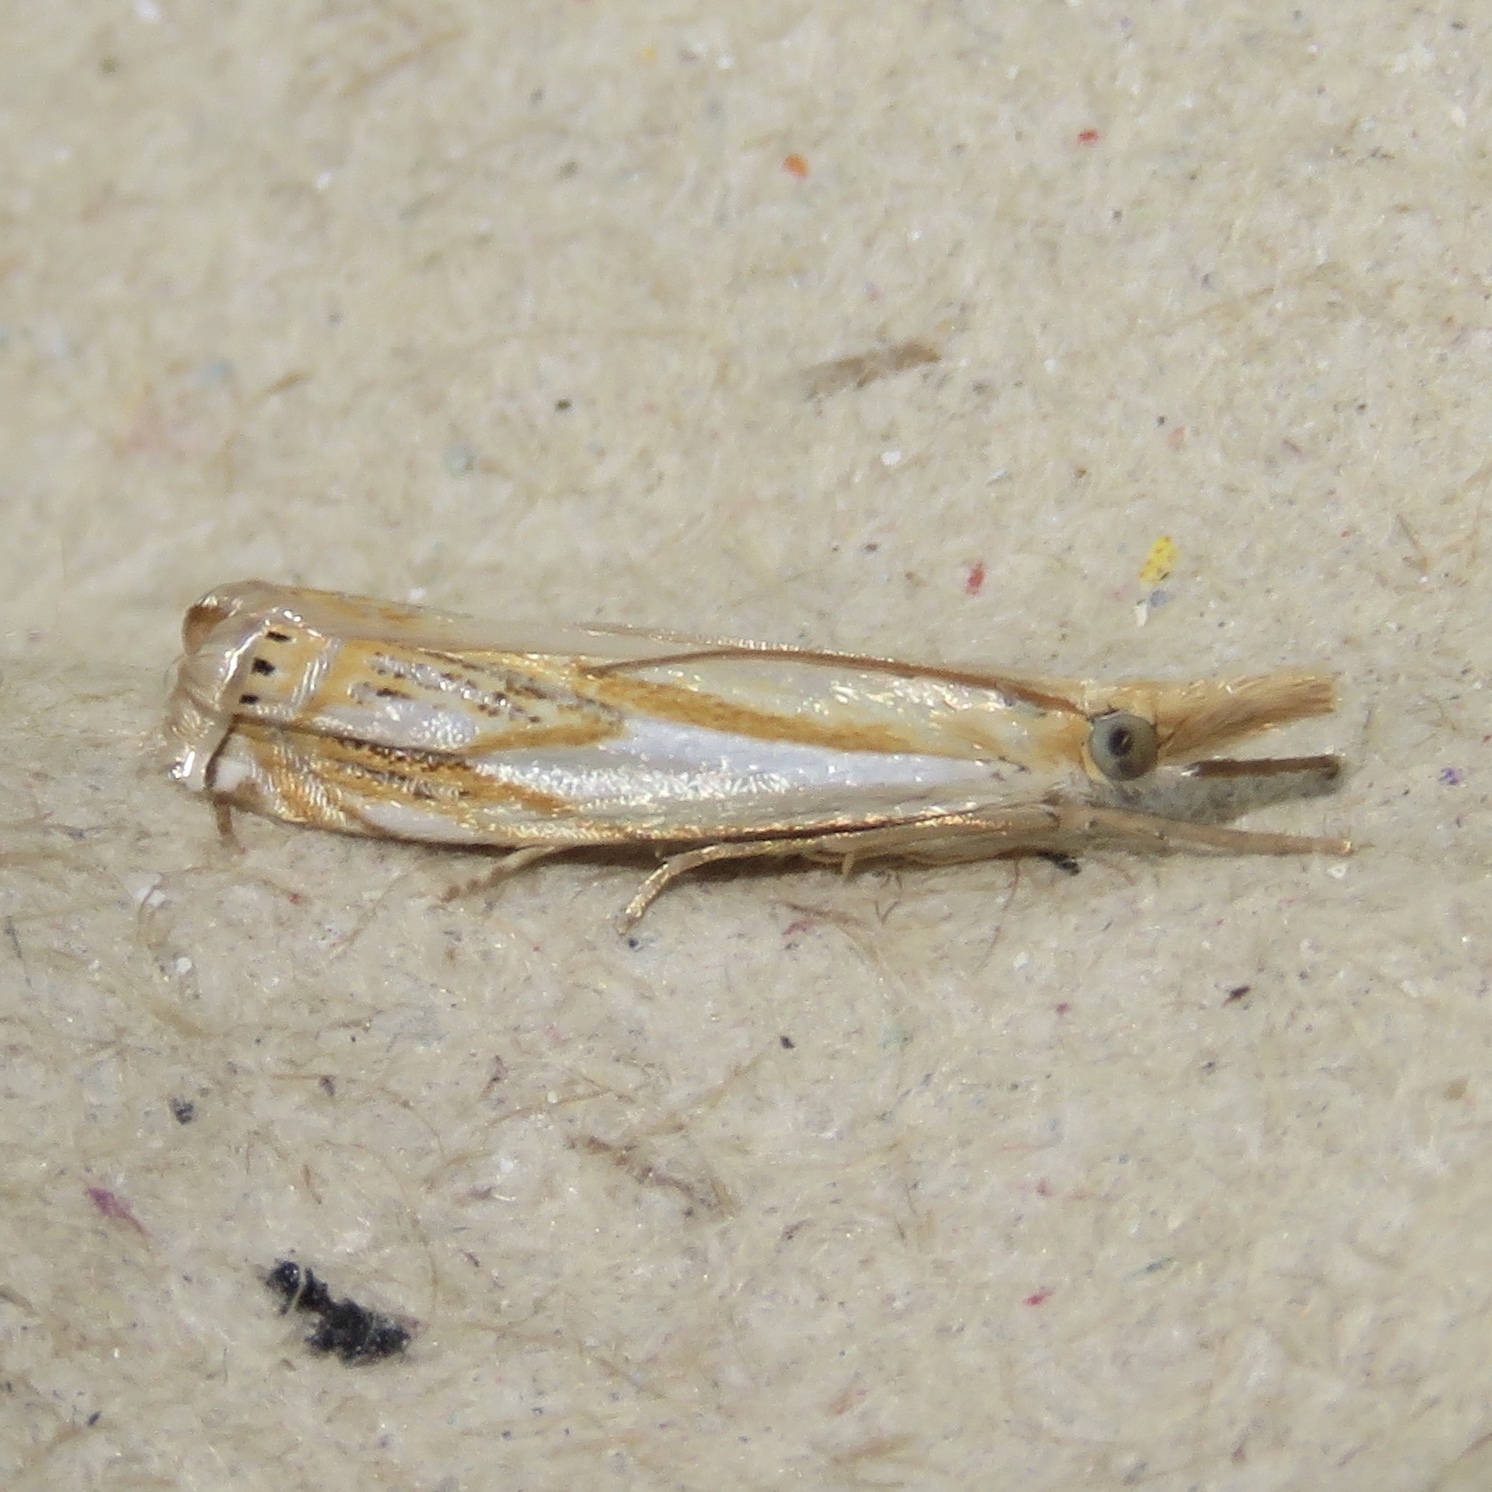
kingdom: Animalia
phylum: Arthropoda
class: Insecta
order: Lepidoptera
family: Crambidae
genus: Crambus
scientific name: Crambus agitatellus
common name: Double-banded grass-veneer
